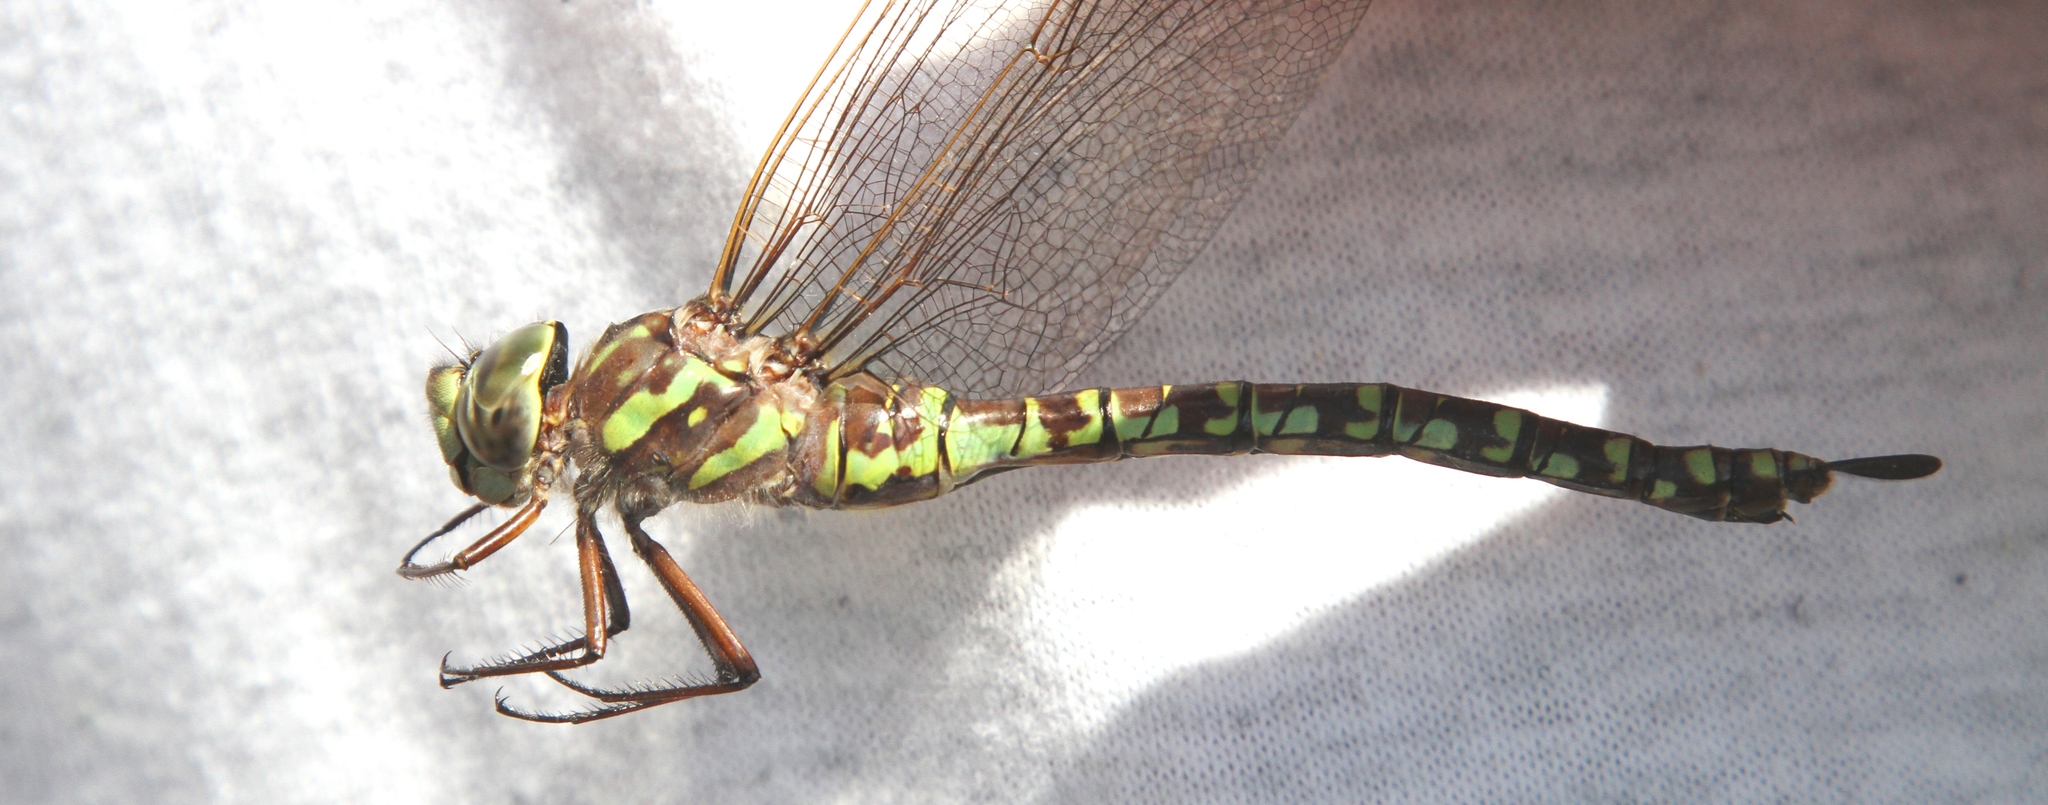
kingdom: Animalia
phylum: Arthropoda
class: Insecta
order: Odonata
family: Aeshnidae
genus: Aeshna
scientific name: Aeshna canadensis
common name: Canada darner
